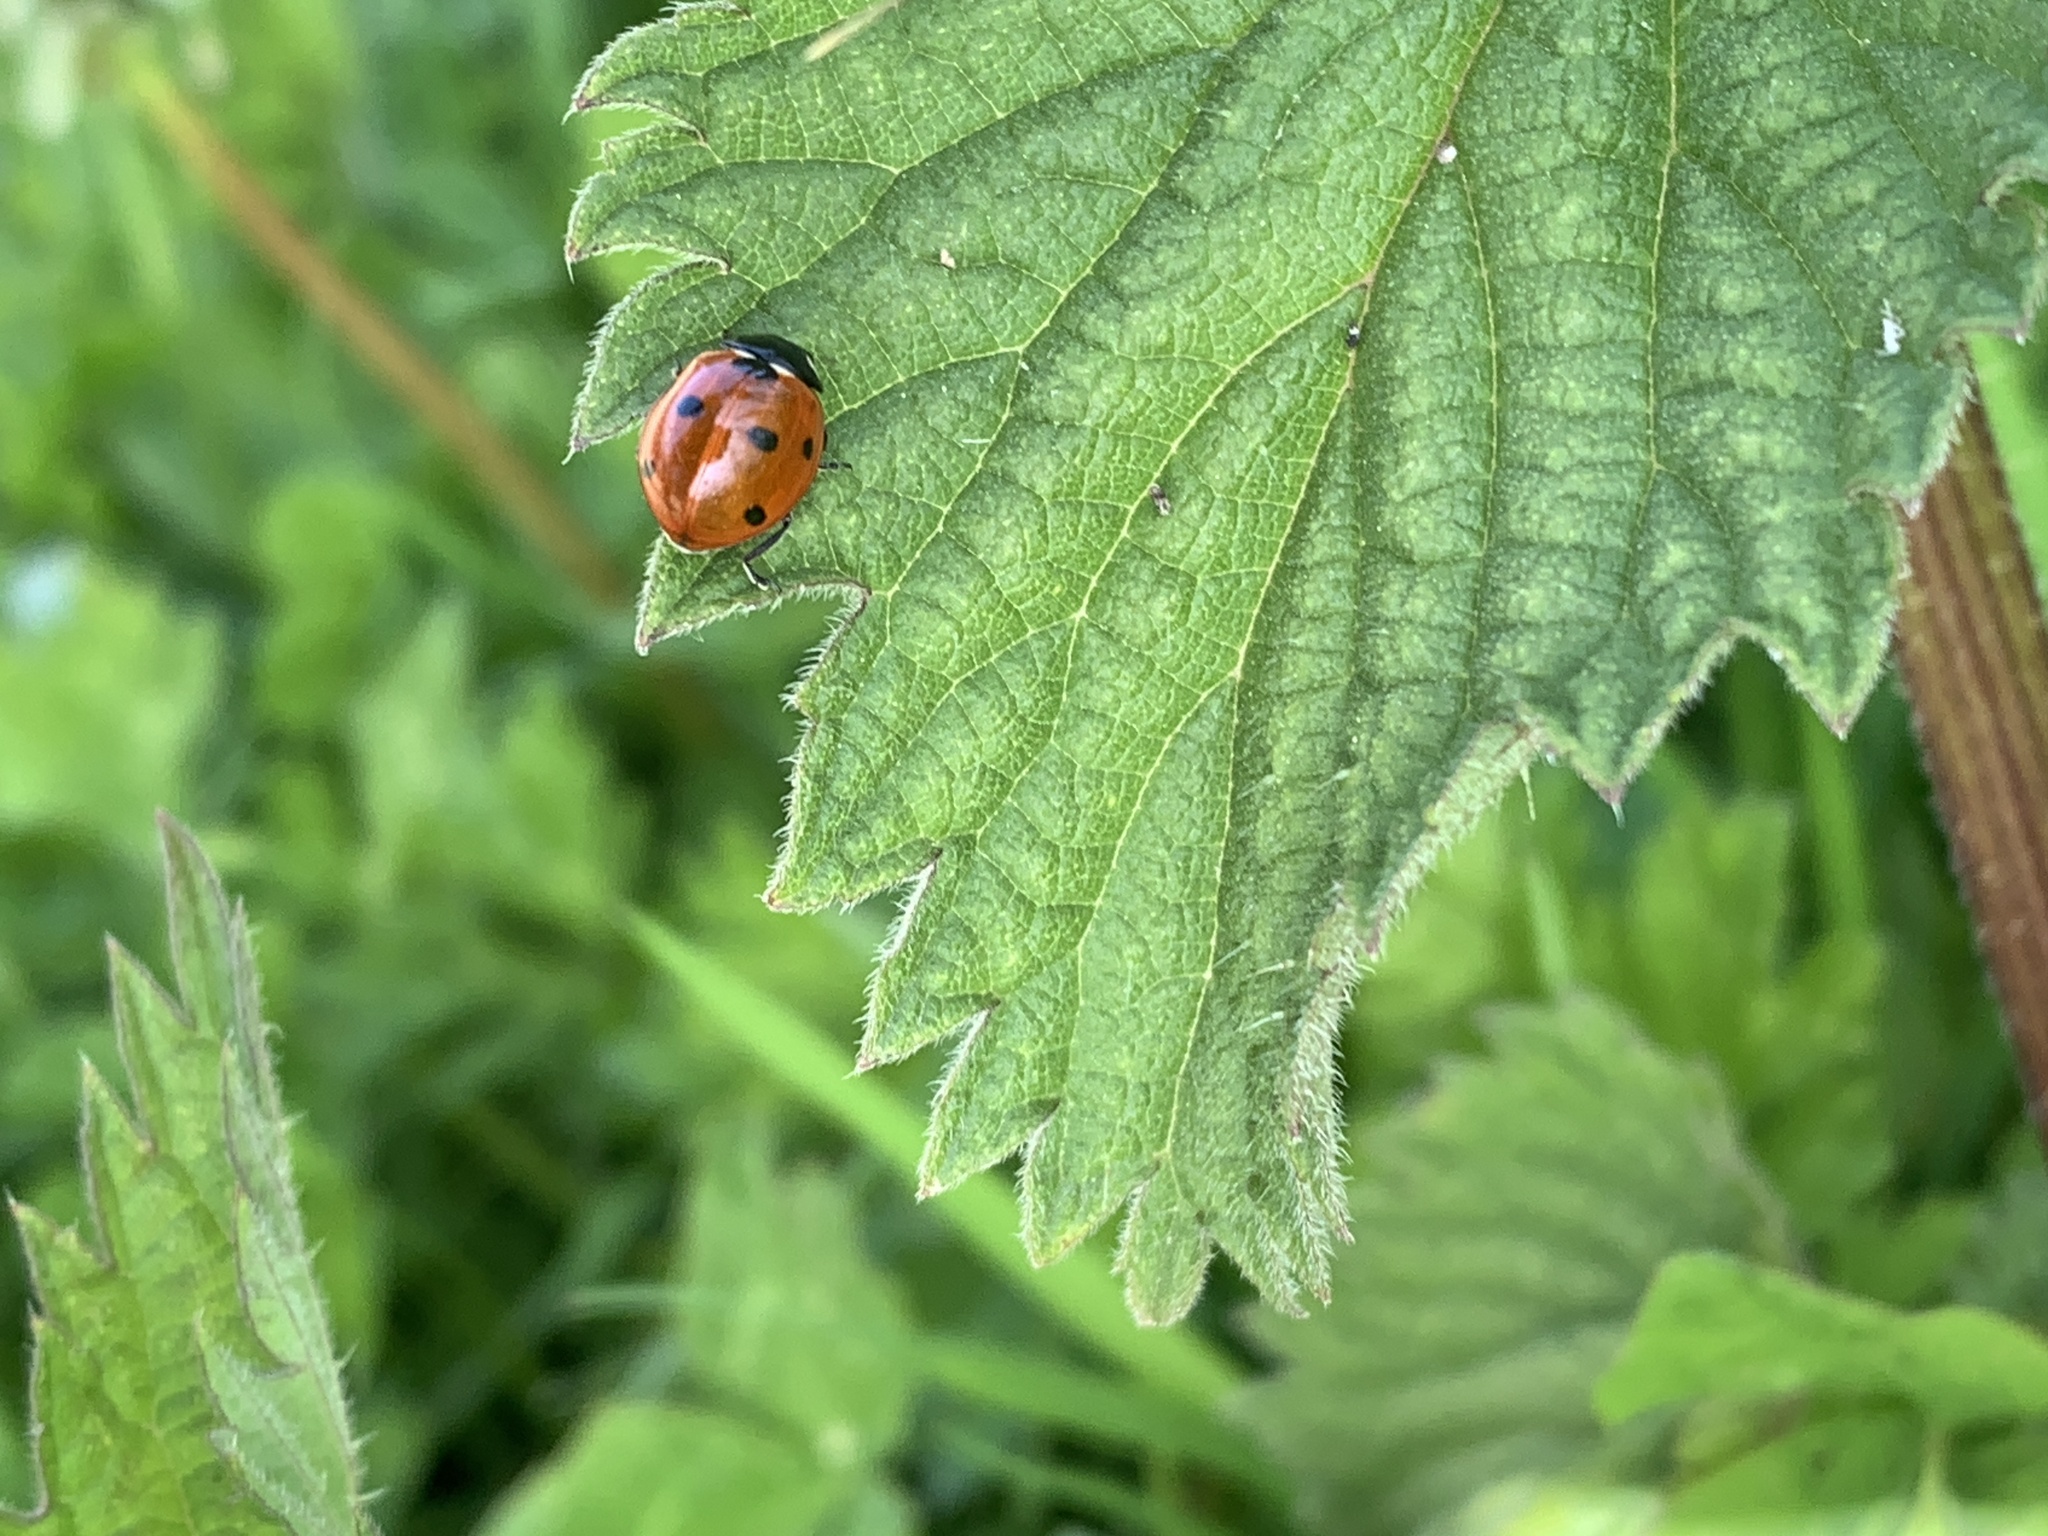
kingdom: Animalia
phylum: Arthropoda
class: Insecta
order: Coleoptera
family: Coccinellidae
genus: Coccinella
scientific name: Coccinella septempunctata
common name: Sevenspotted lady beetle
